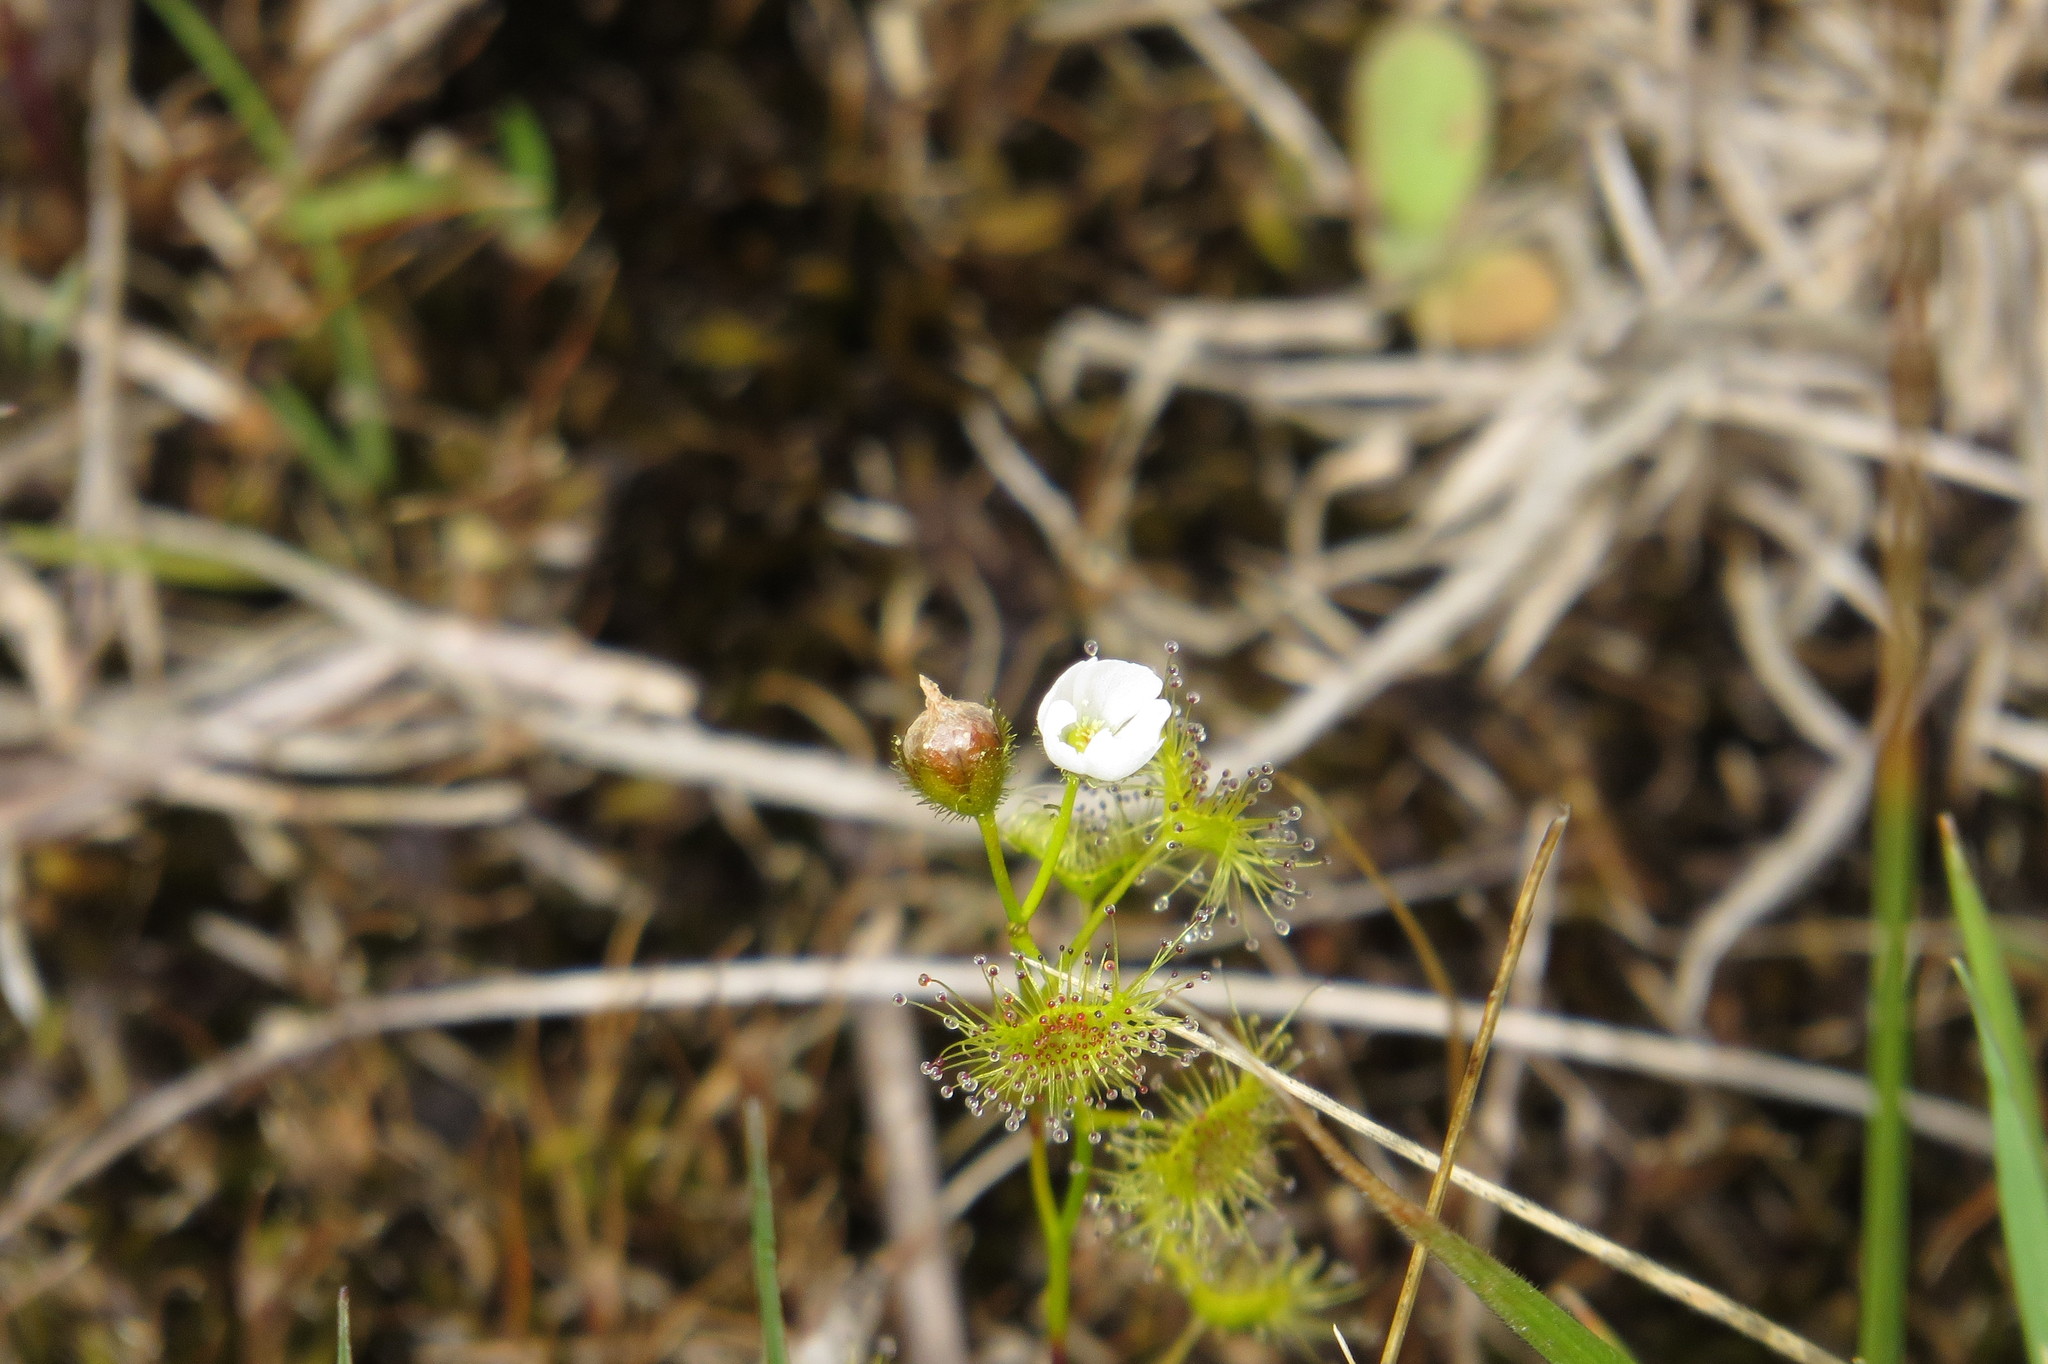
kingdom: Plantae
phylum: Tracheophyta
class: Magnoliopsida
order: Caryophyllales
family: Droseraceae
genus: Drosera
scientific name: Drosera hookeri
